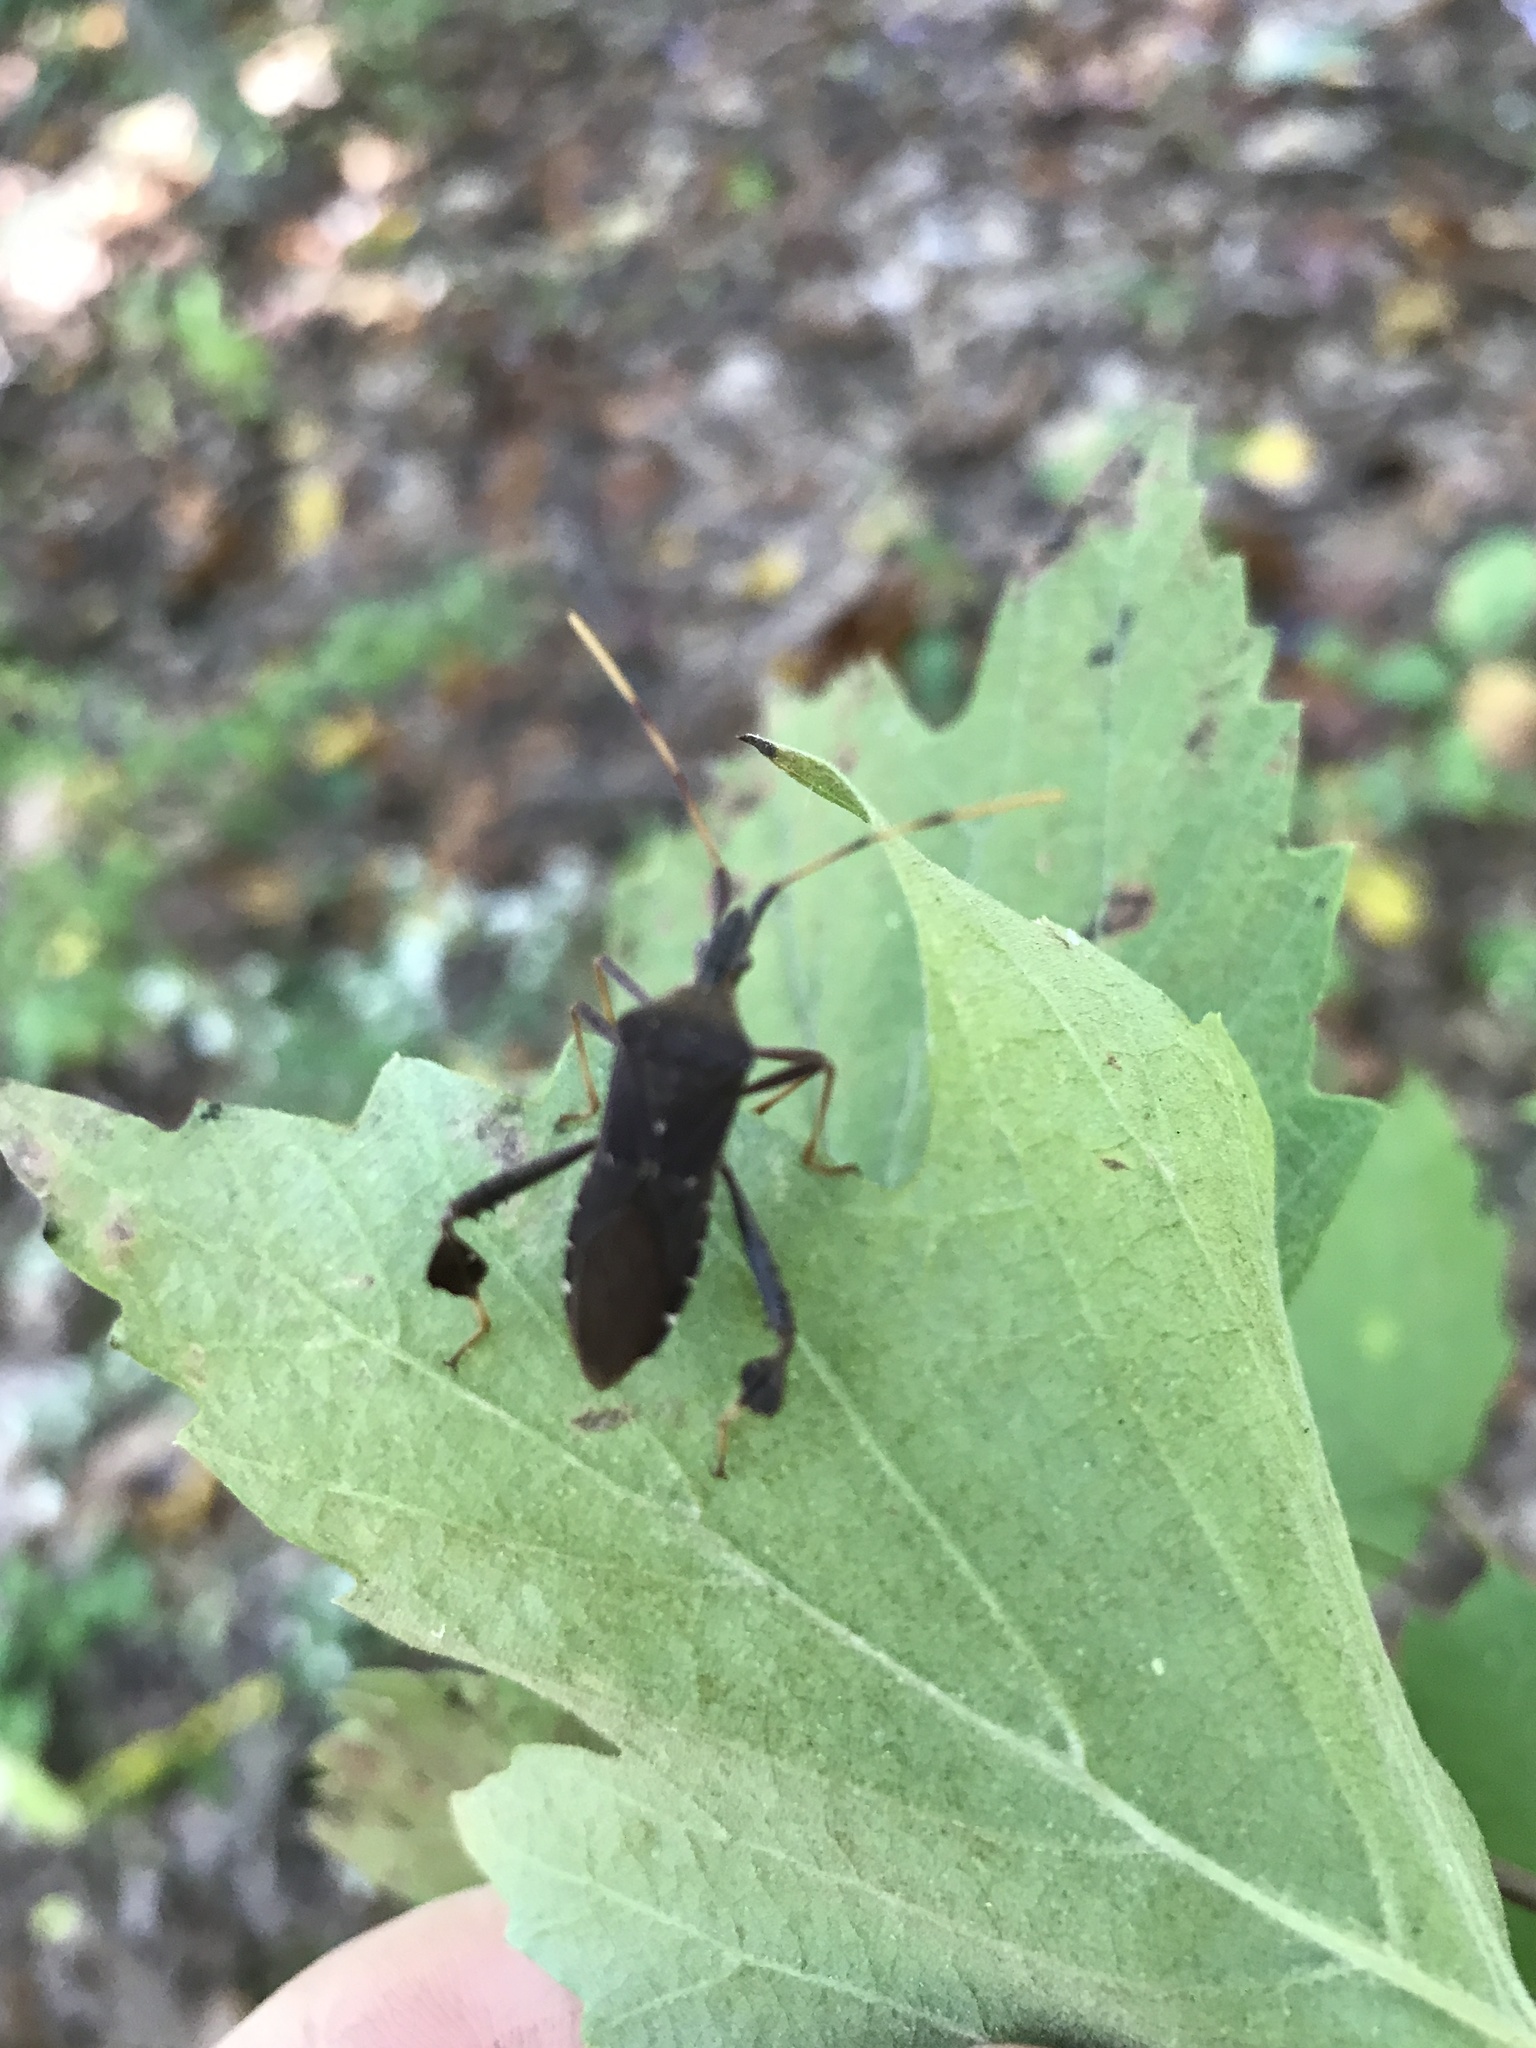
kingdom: Animalia
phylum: Arthropoda
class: Insecta
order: Hemiptera
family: Coreidae
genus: Leptoglossus
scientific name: Leptoglossus oppositus
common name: Northern leaf-footed bug
